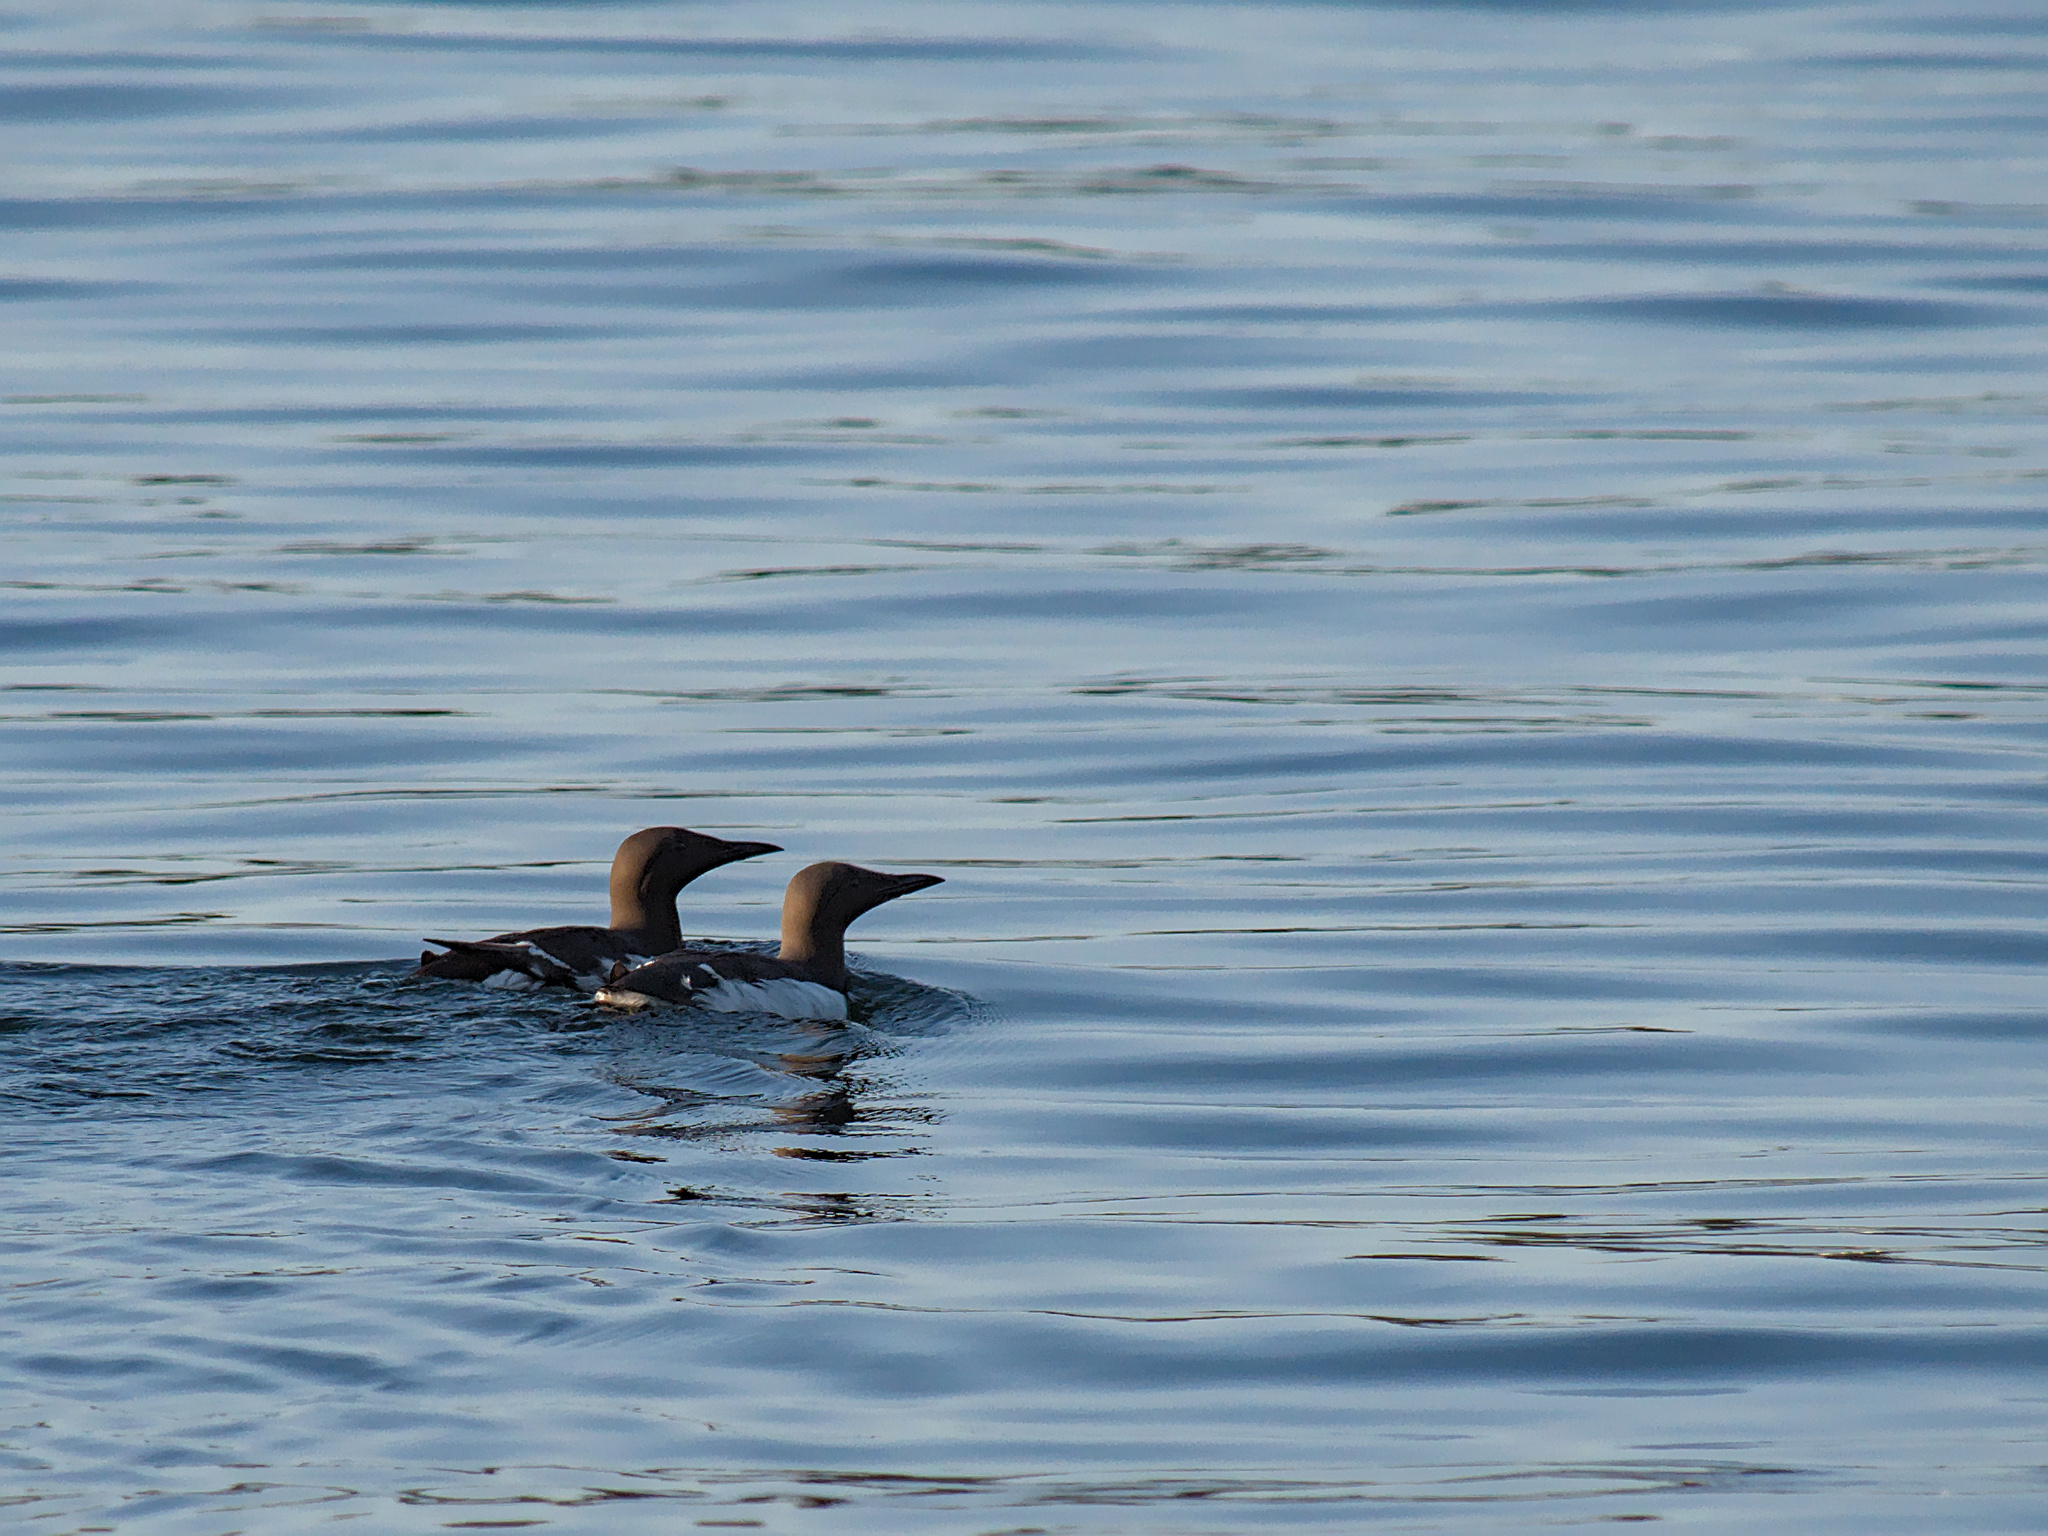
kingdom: Animalia
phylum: Chordata
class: Aves
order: Charadriiformes
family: Alcidae
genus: Uria
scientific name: Uria aalge
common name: Common murre
